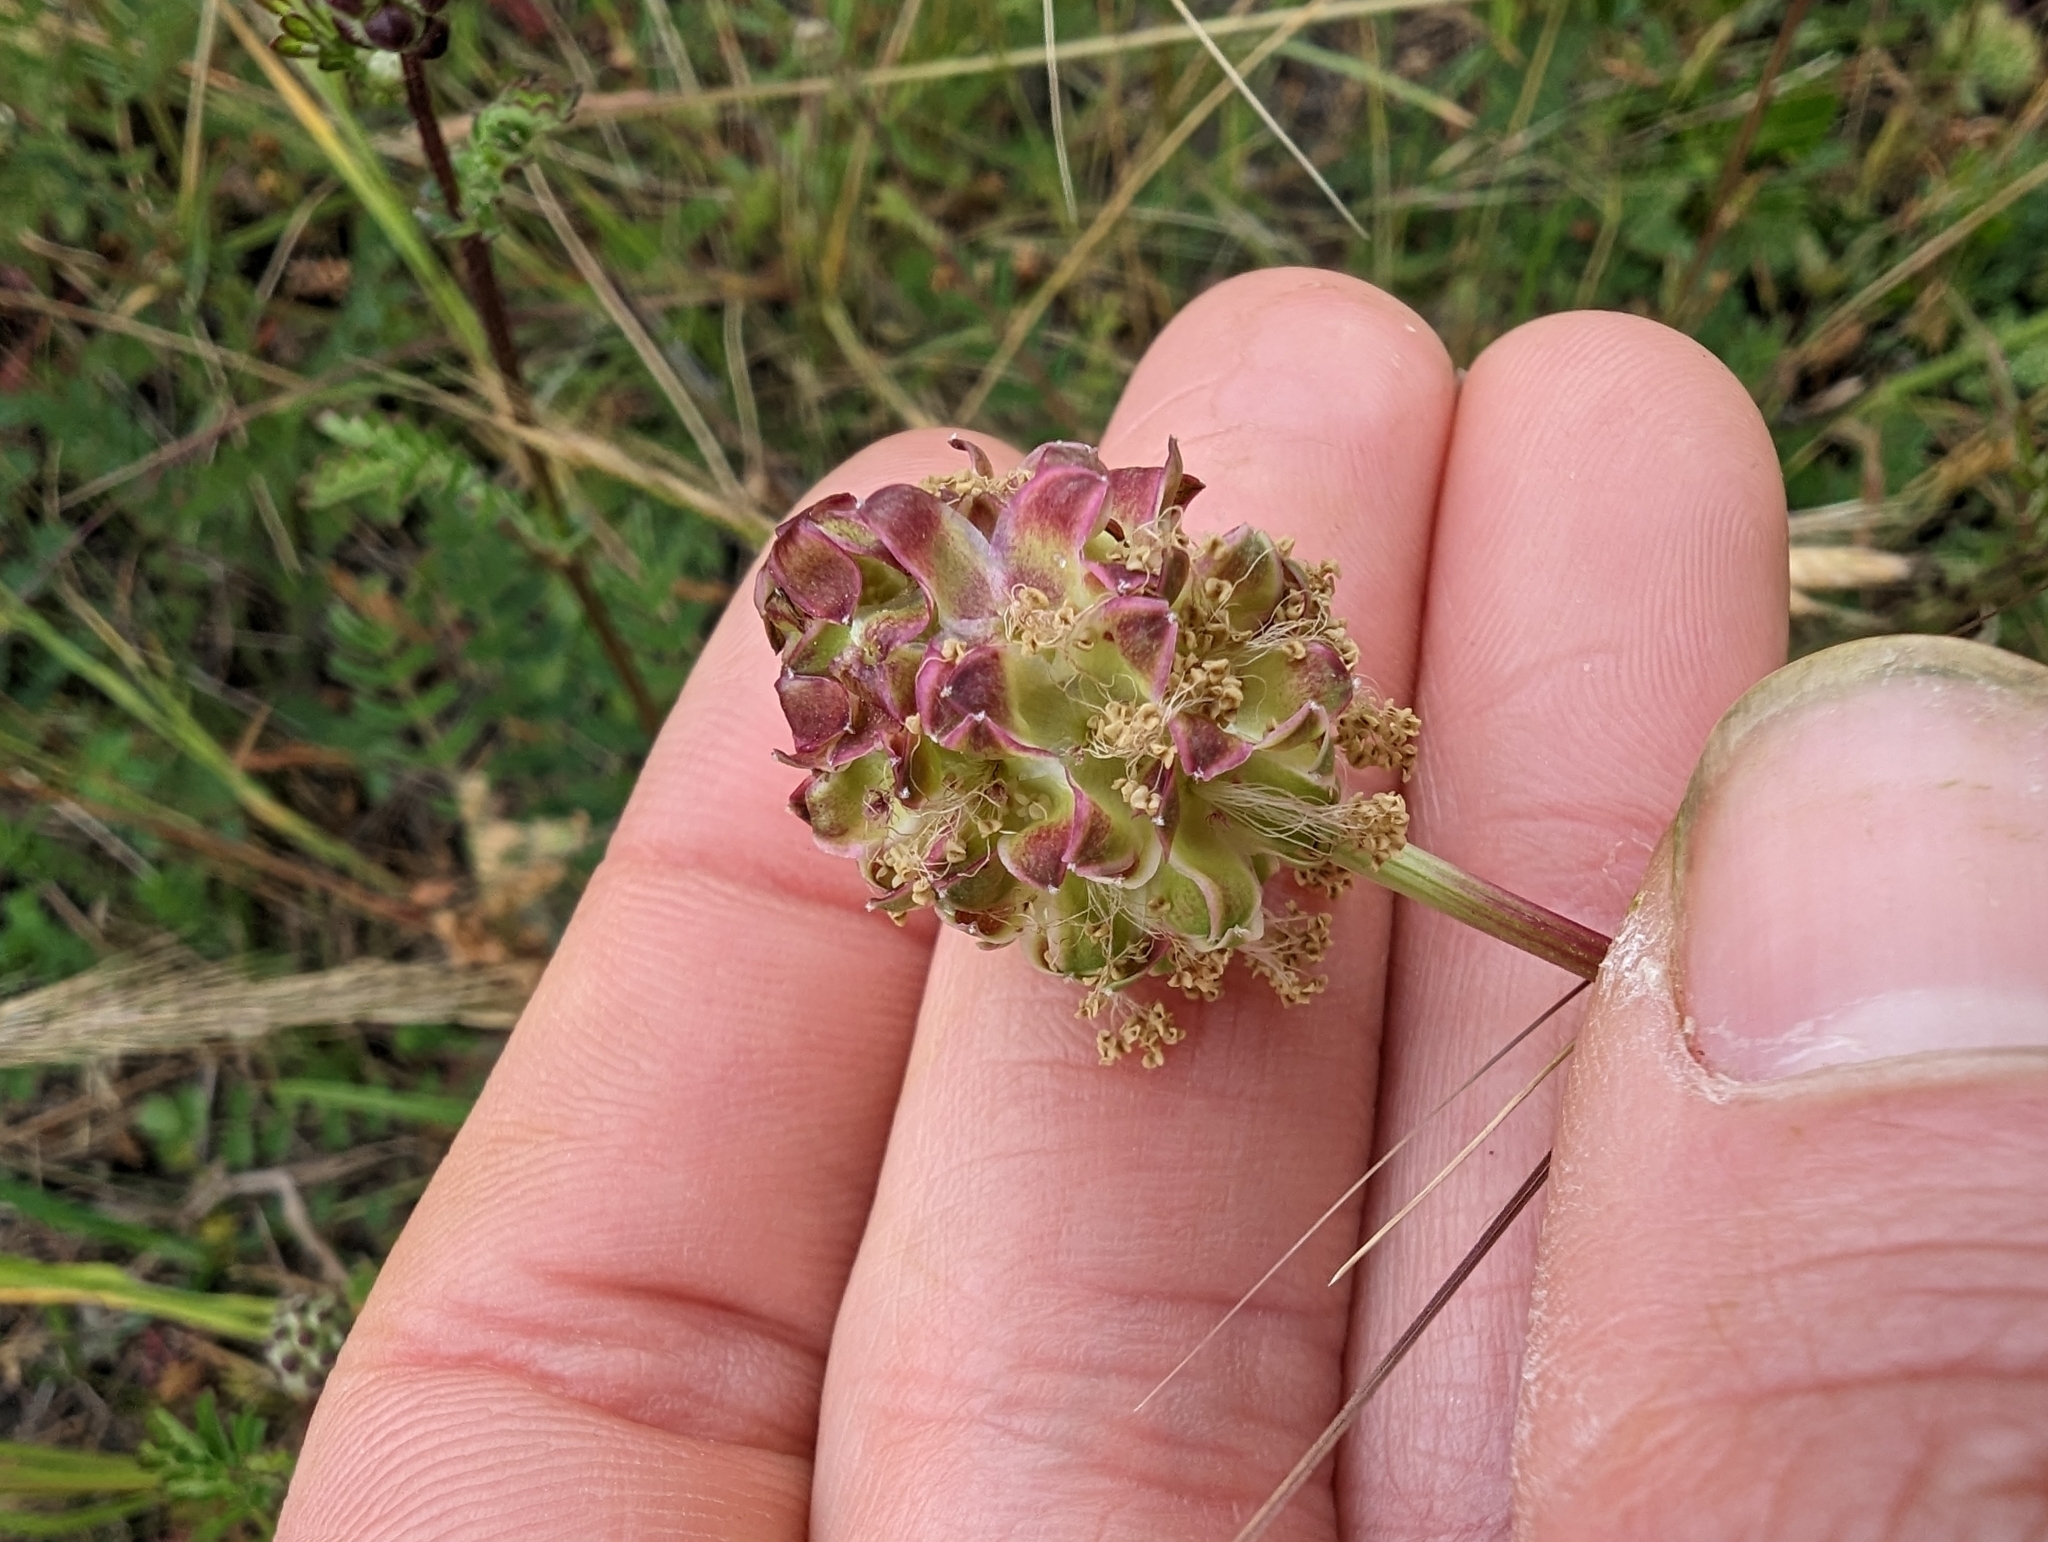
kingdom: Plantae
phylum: Tracheophyta
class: Magnoliopsida
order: Rosales
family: Rosaceae
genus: Poterium
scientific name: Poterium sanguisorba
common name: Salad burnet
